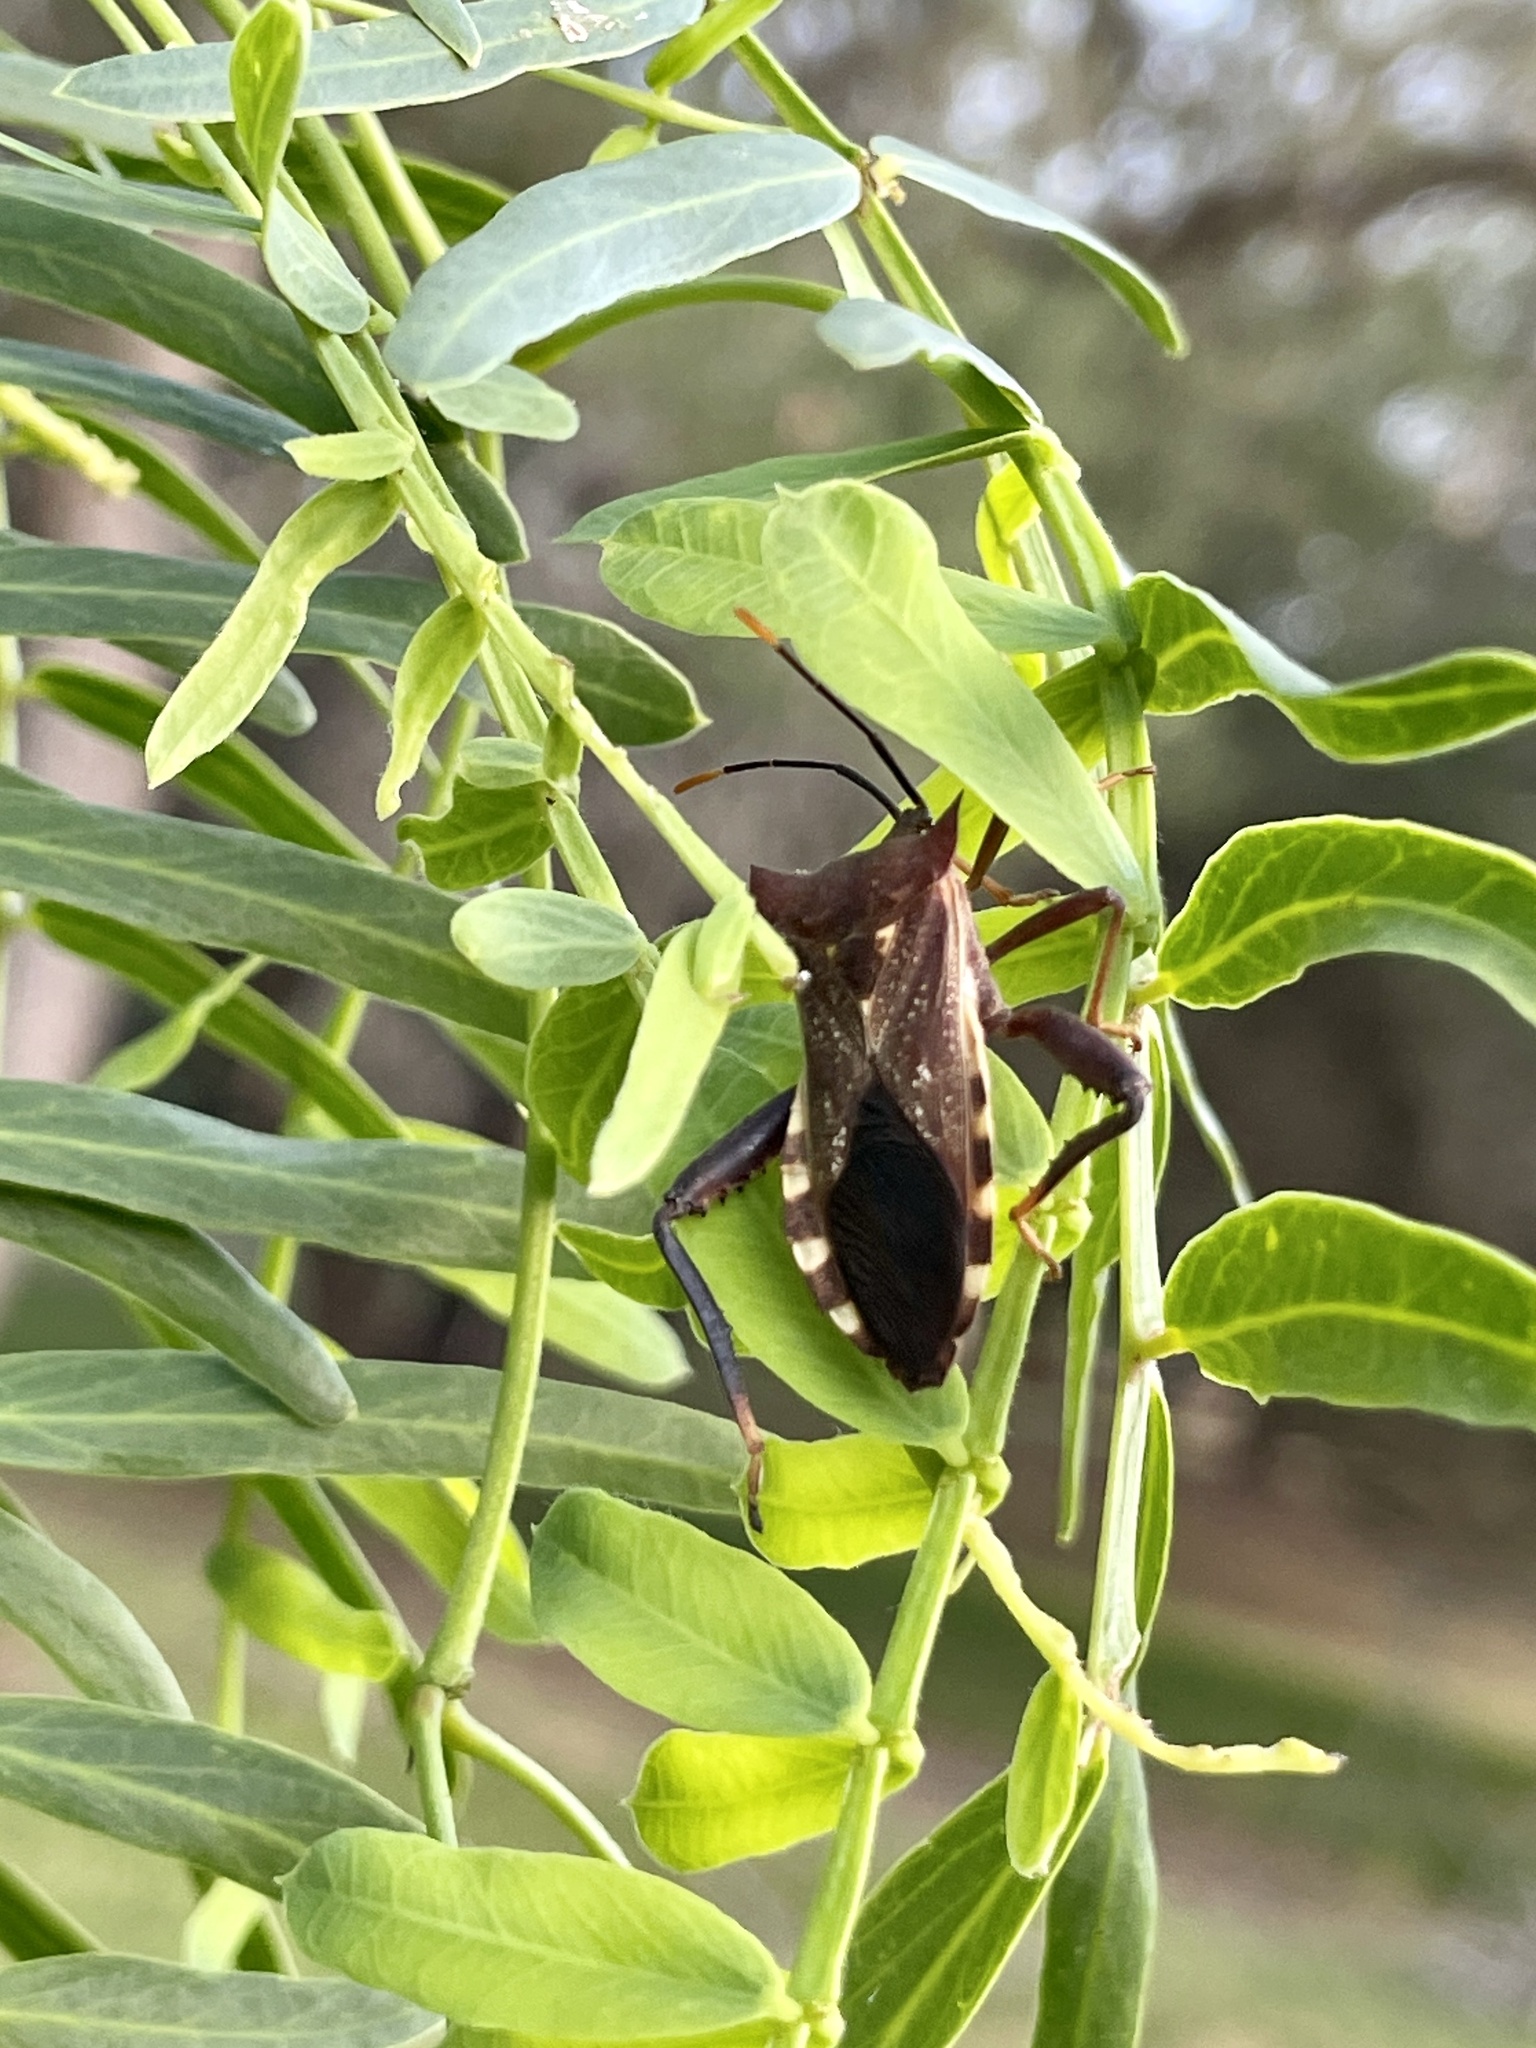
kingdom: Animalia
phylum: Arthropoda
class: Insecta
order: Hemiptera
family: Coreidae
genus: Mozena
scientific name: Mozena lunata
